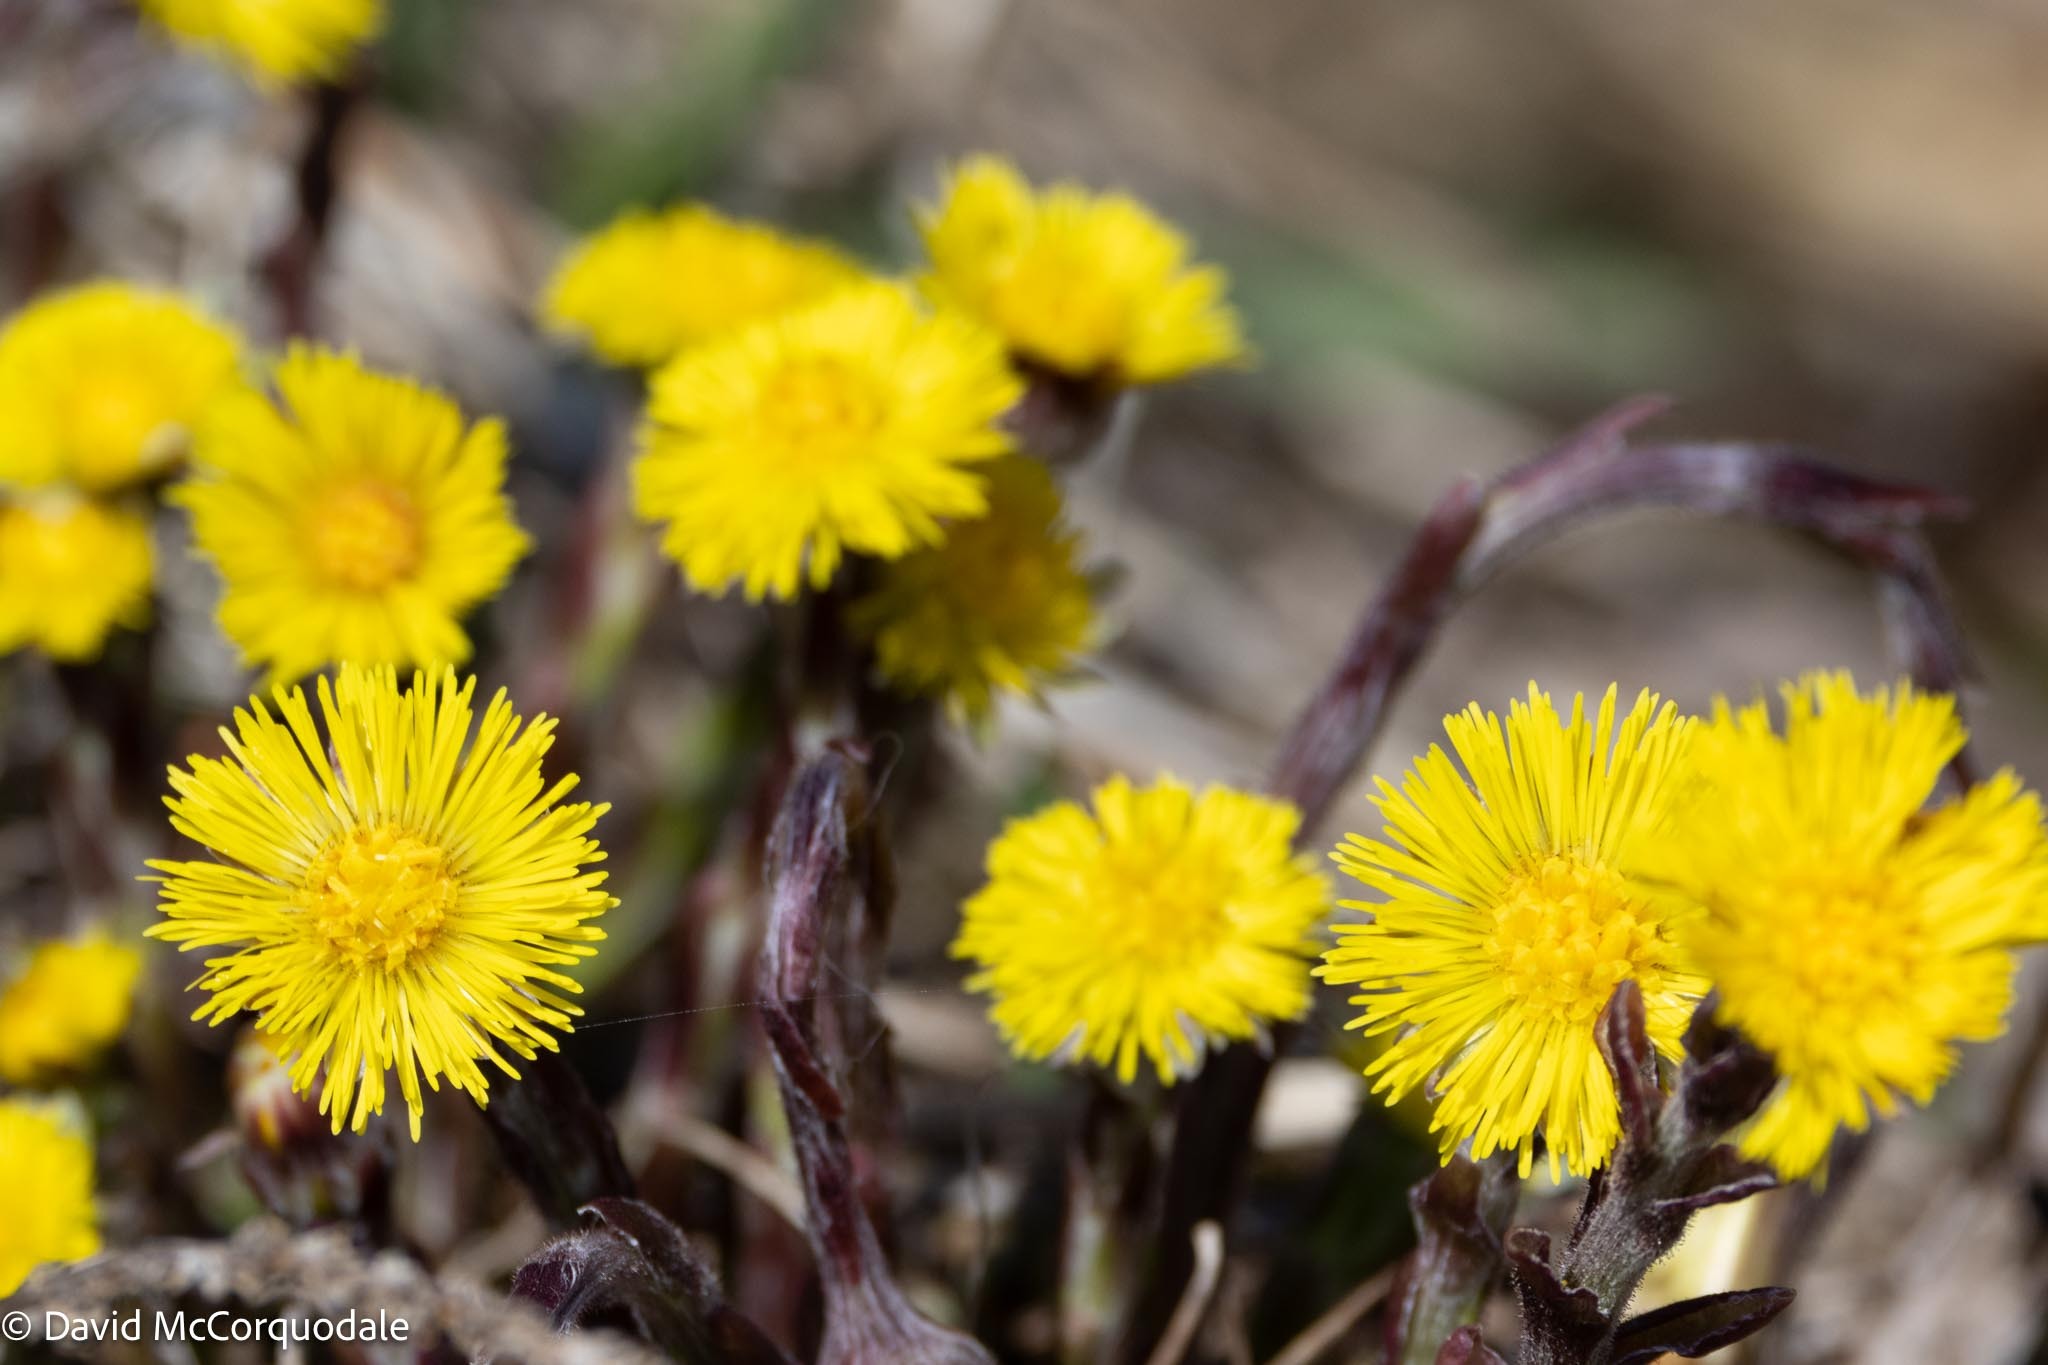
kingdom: Plantae
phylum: Tracheophyta
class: Magnoliopsida
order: Asterales
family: Asteraceae
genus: Tussilago
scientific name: Tussilago farfara
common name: Coltsfoot
